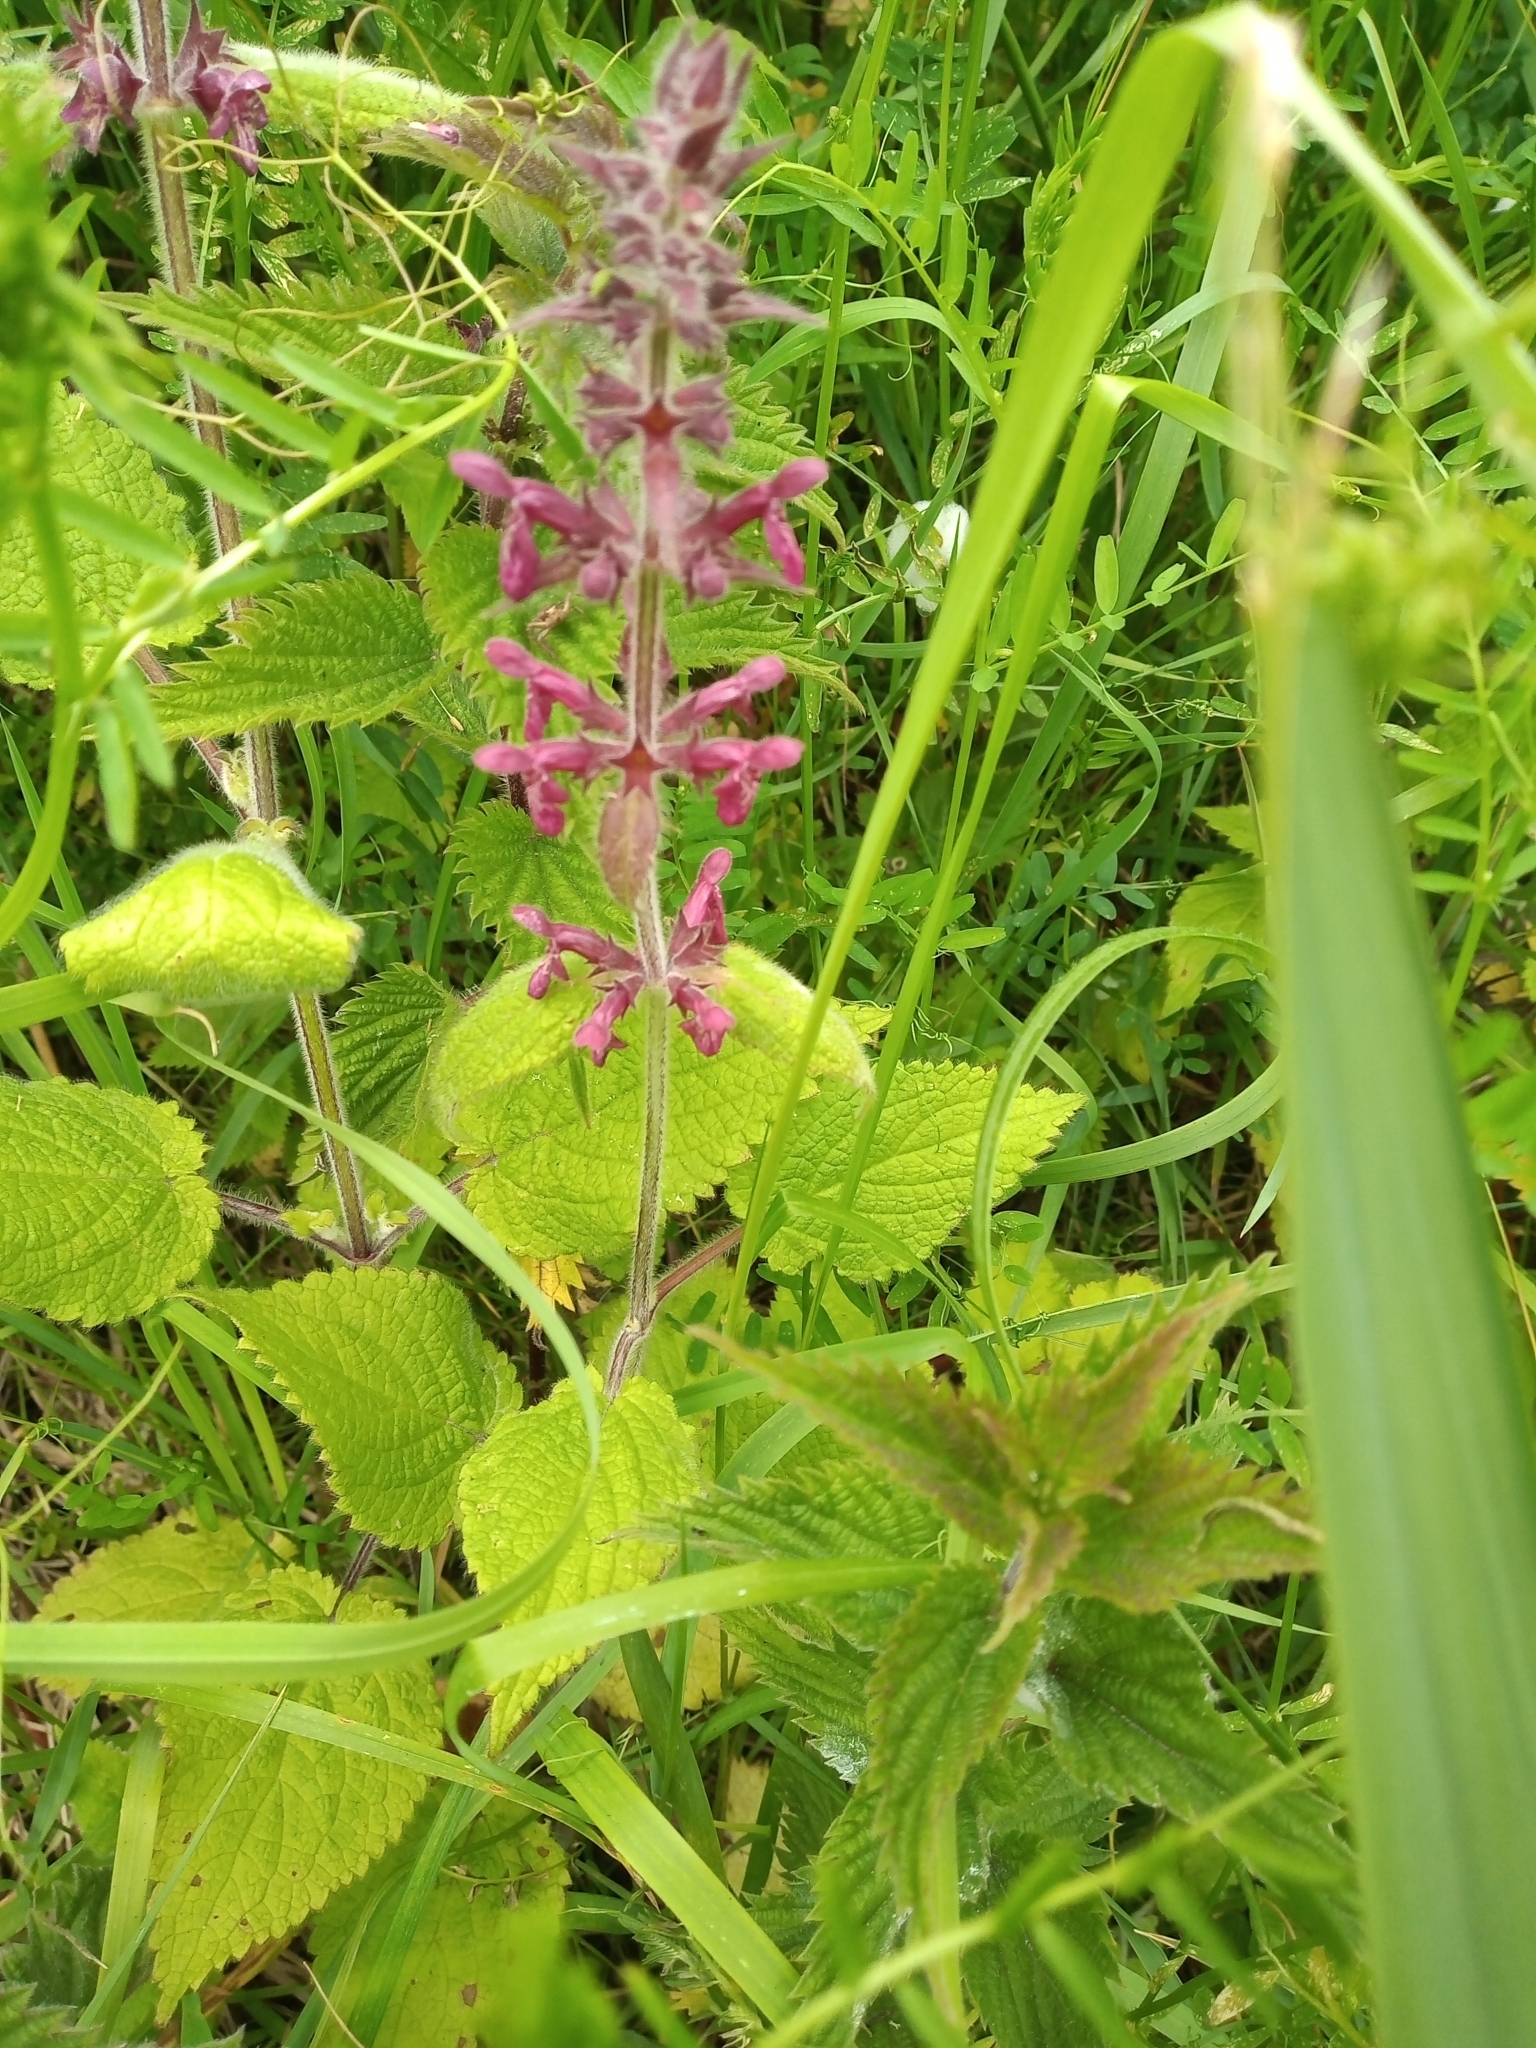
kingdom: Plantae
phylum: Tracheophyta
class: Magnoliopsida
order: Lamiales
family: Lamiaceae
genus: Stachys
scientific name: Stachys sylvatica
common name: Hedge woundwort
